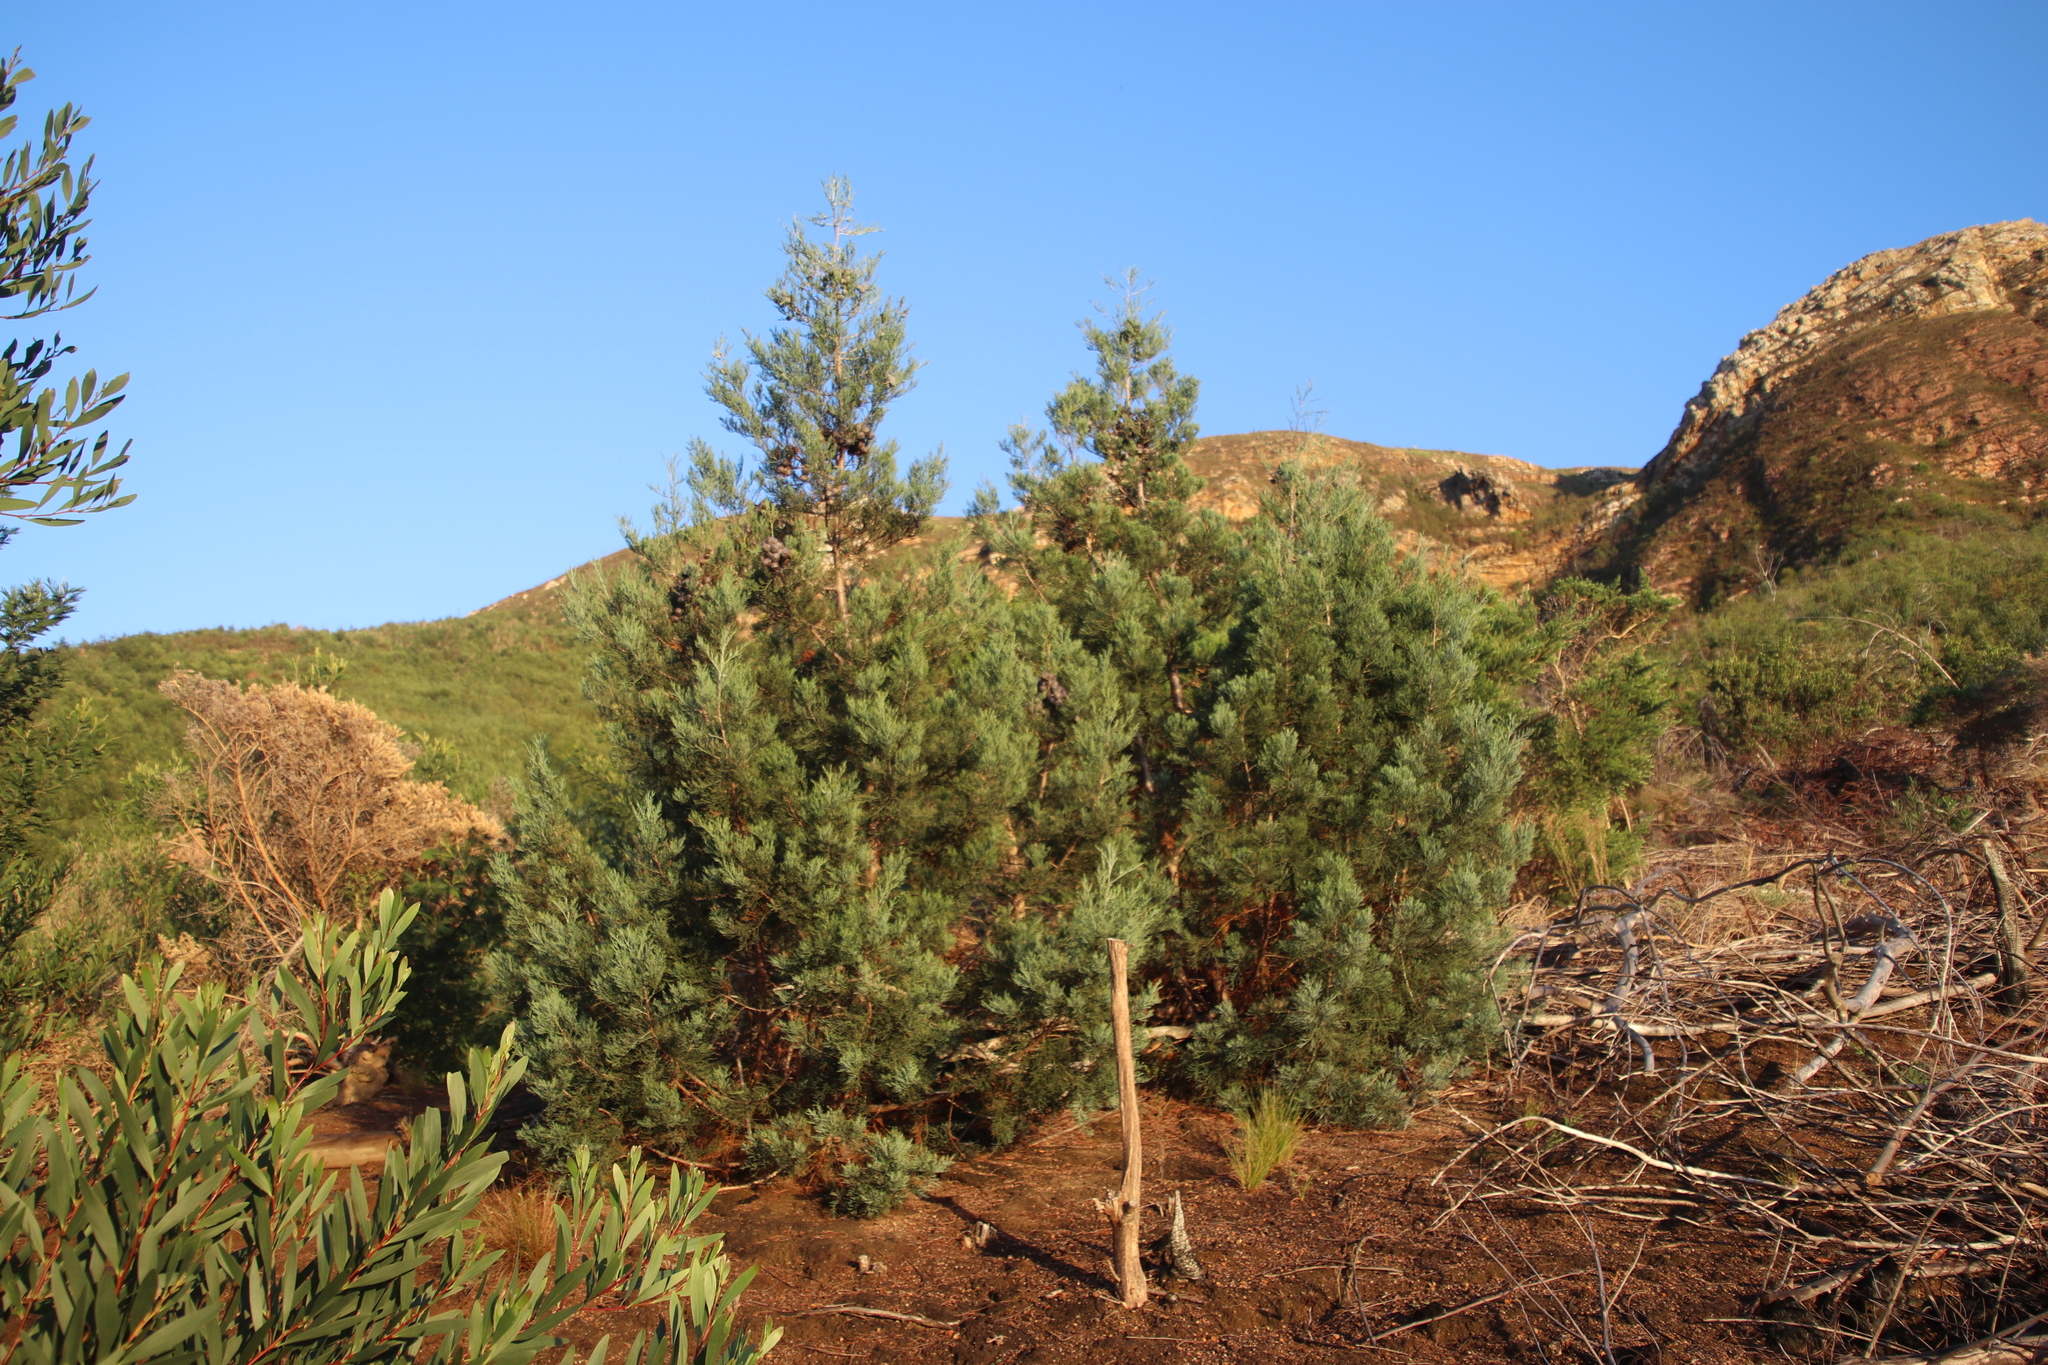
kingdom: Plantae
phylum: Tracheophyta
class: Pinopsida
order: Pinales
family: Cupressaceae
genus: Widdringtonia
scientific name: Widdringtonia nodiflora
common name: Cape cypress
